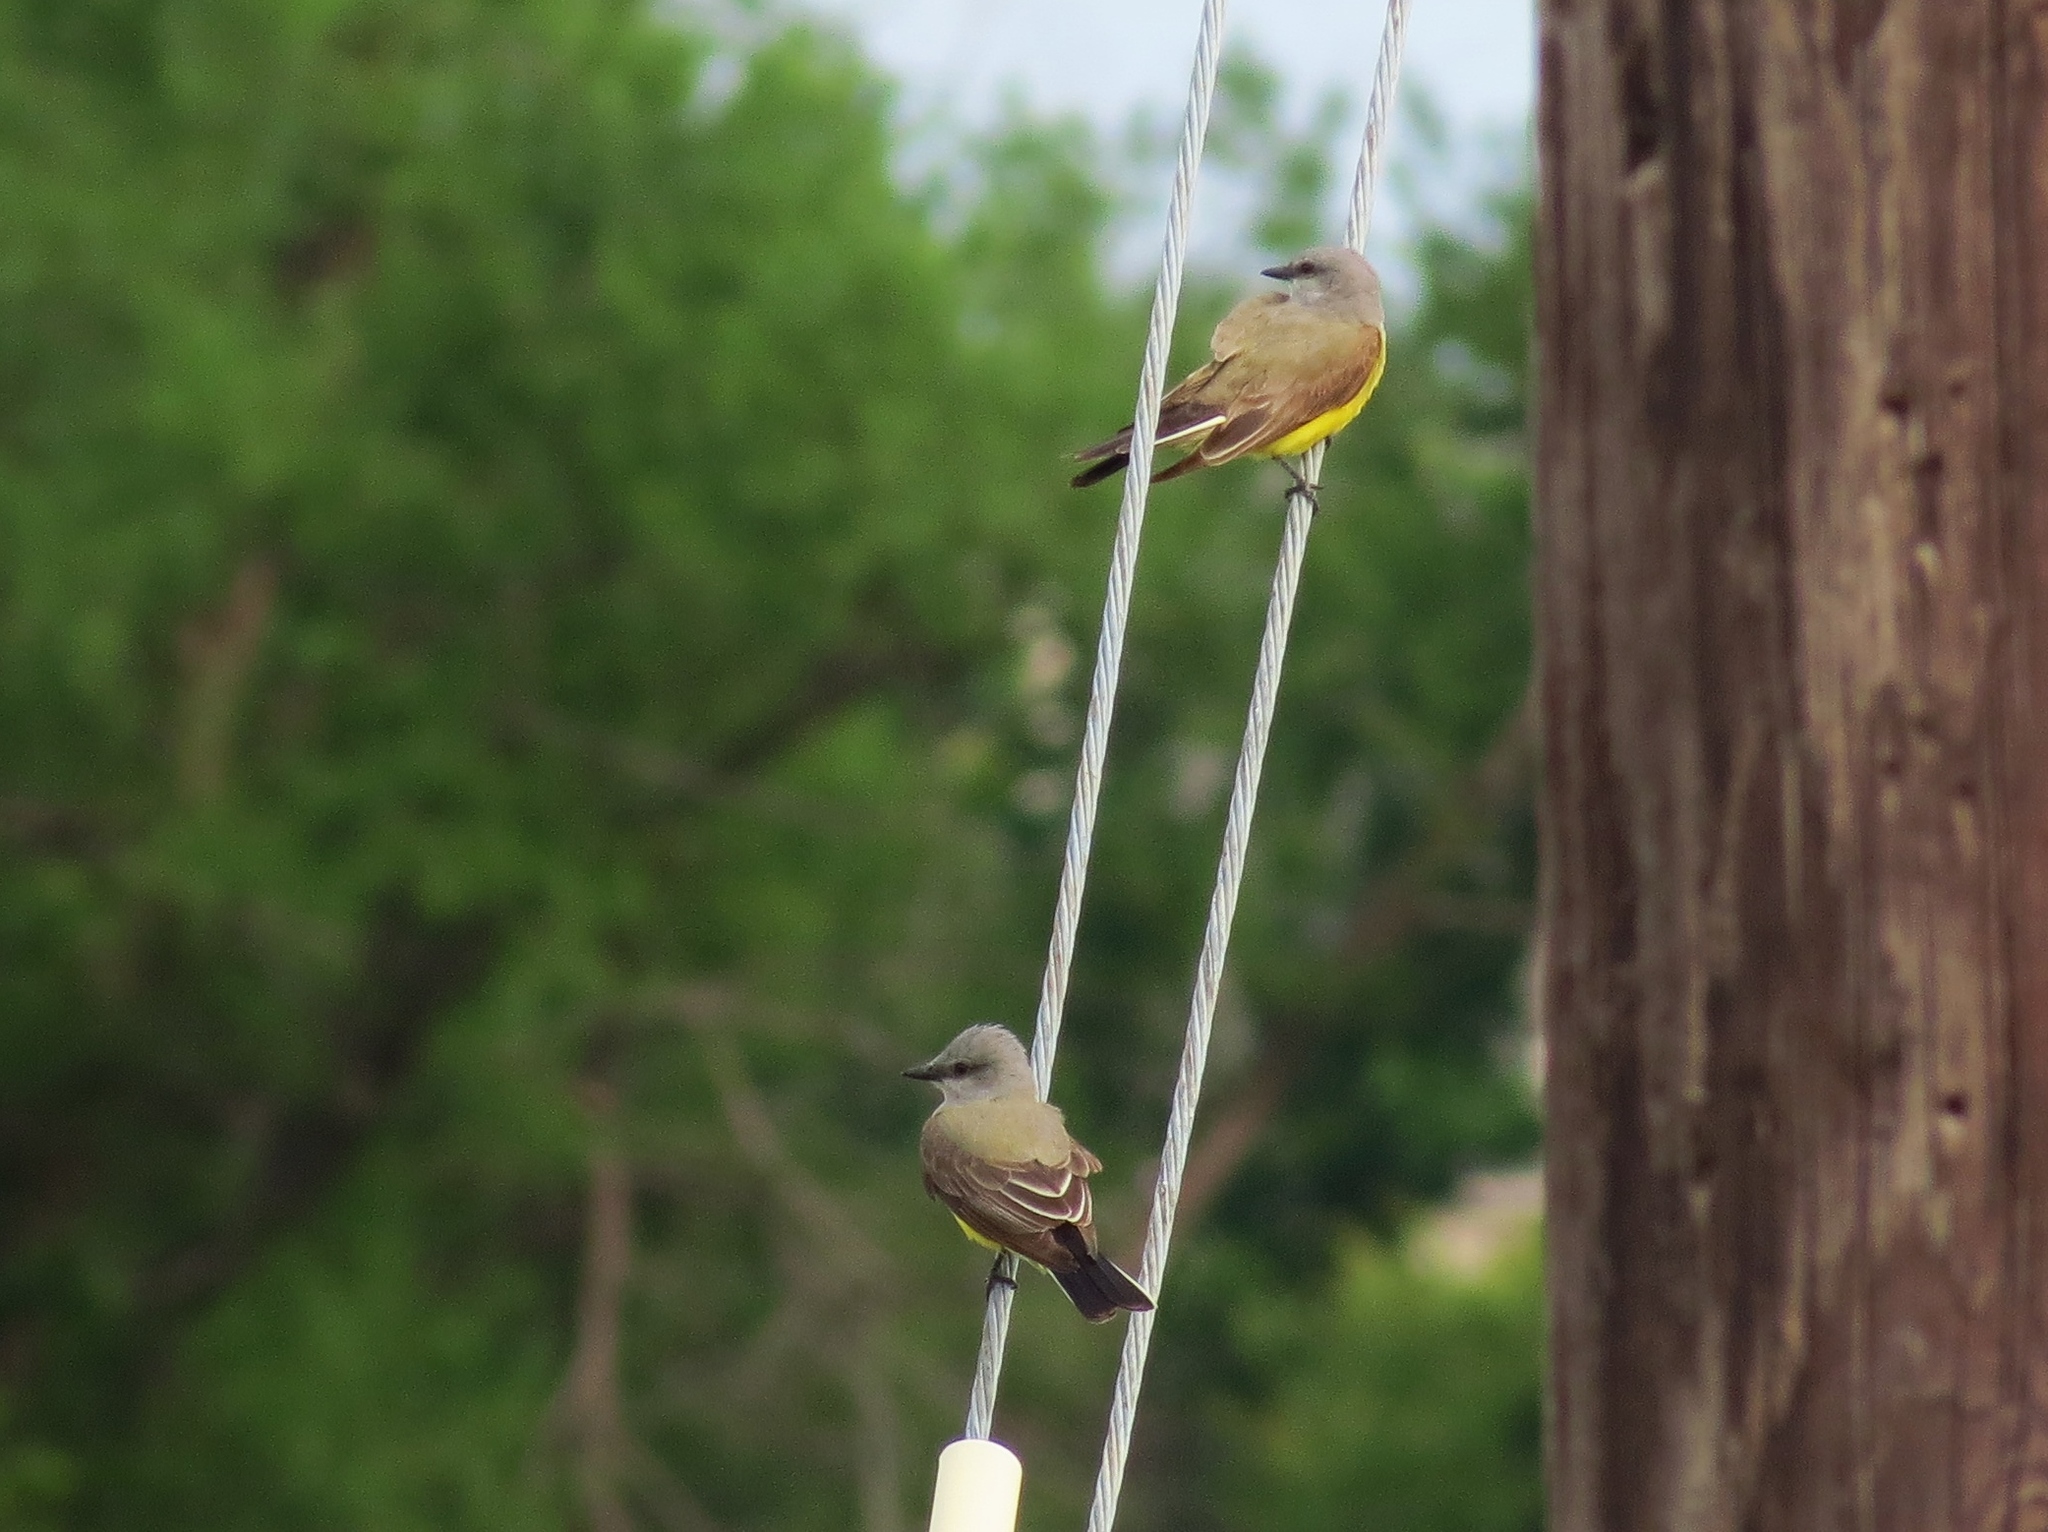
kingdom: Animalia
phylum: Chordata
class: Aves
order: Passeriformes
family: Tyrannidae
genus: Tyrannus
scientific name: Tyrannus verticalis
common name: Western kingbird
